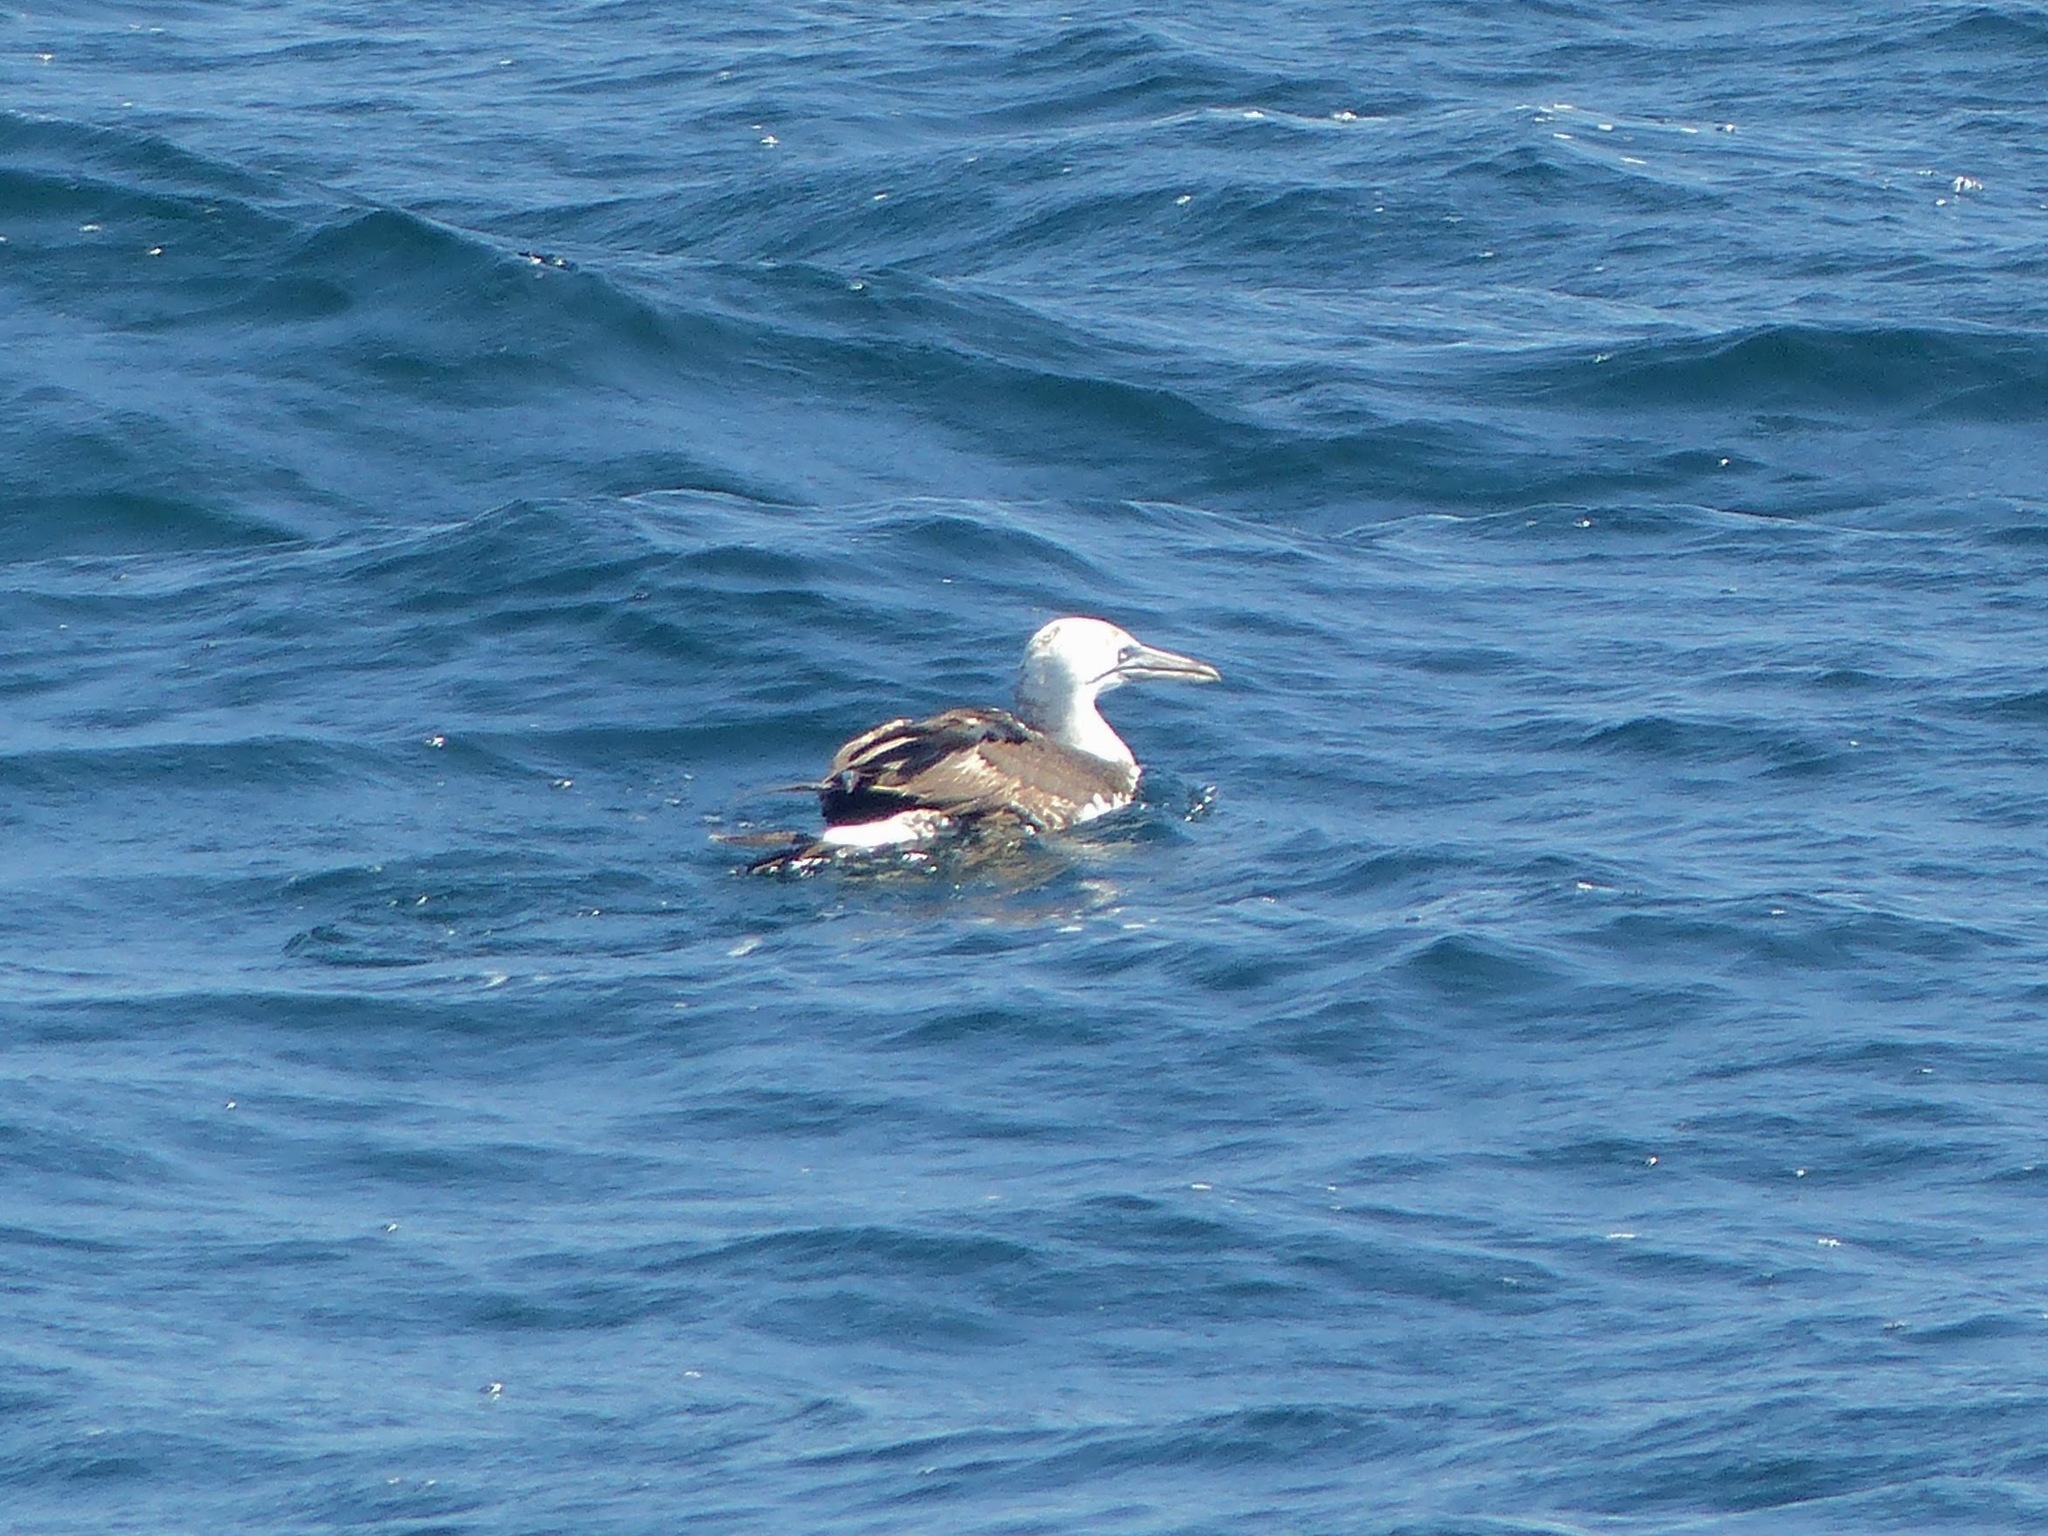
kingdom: Animalia
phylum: Chordata
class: Aves
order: Suliformes
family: Sulidae
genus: Morus
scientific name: Morus bassanus
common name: Northern gannet
